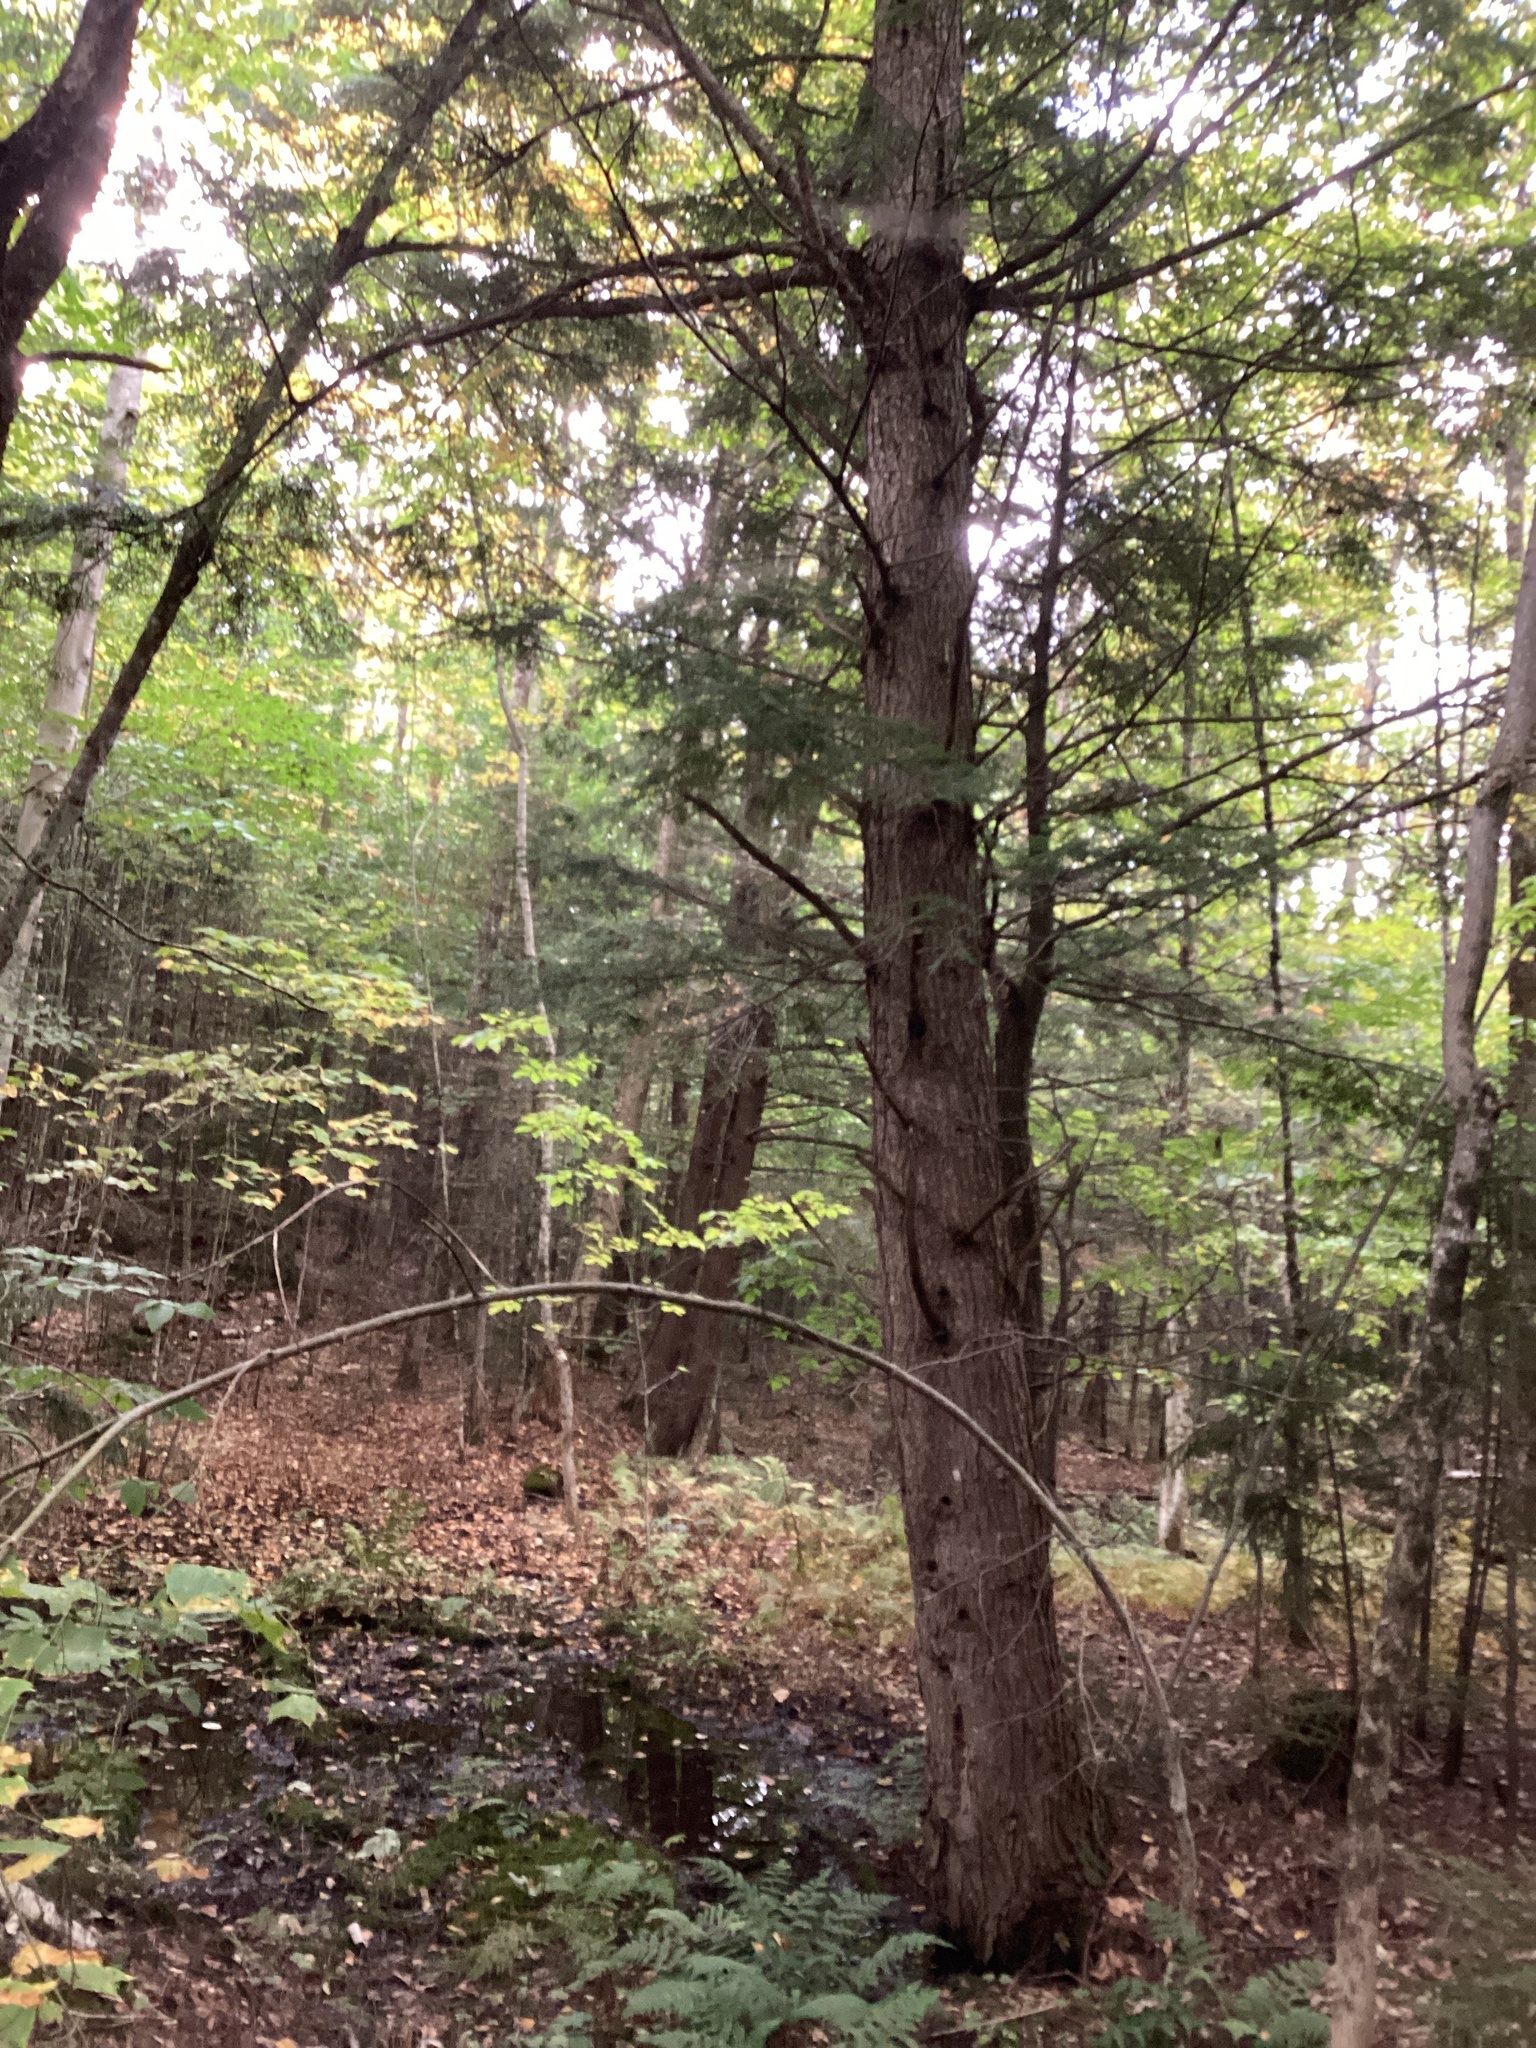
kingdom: Plantae
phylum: Tracheophyta
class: Pinopsida
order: Pinales
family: Pinaceae
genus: Tsuga
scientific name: Tsuga canadensis
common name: Eastern hemlock
